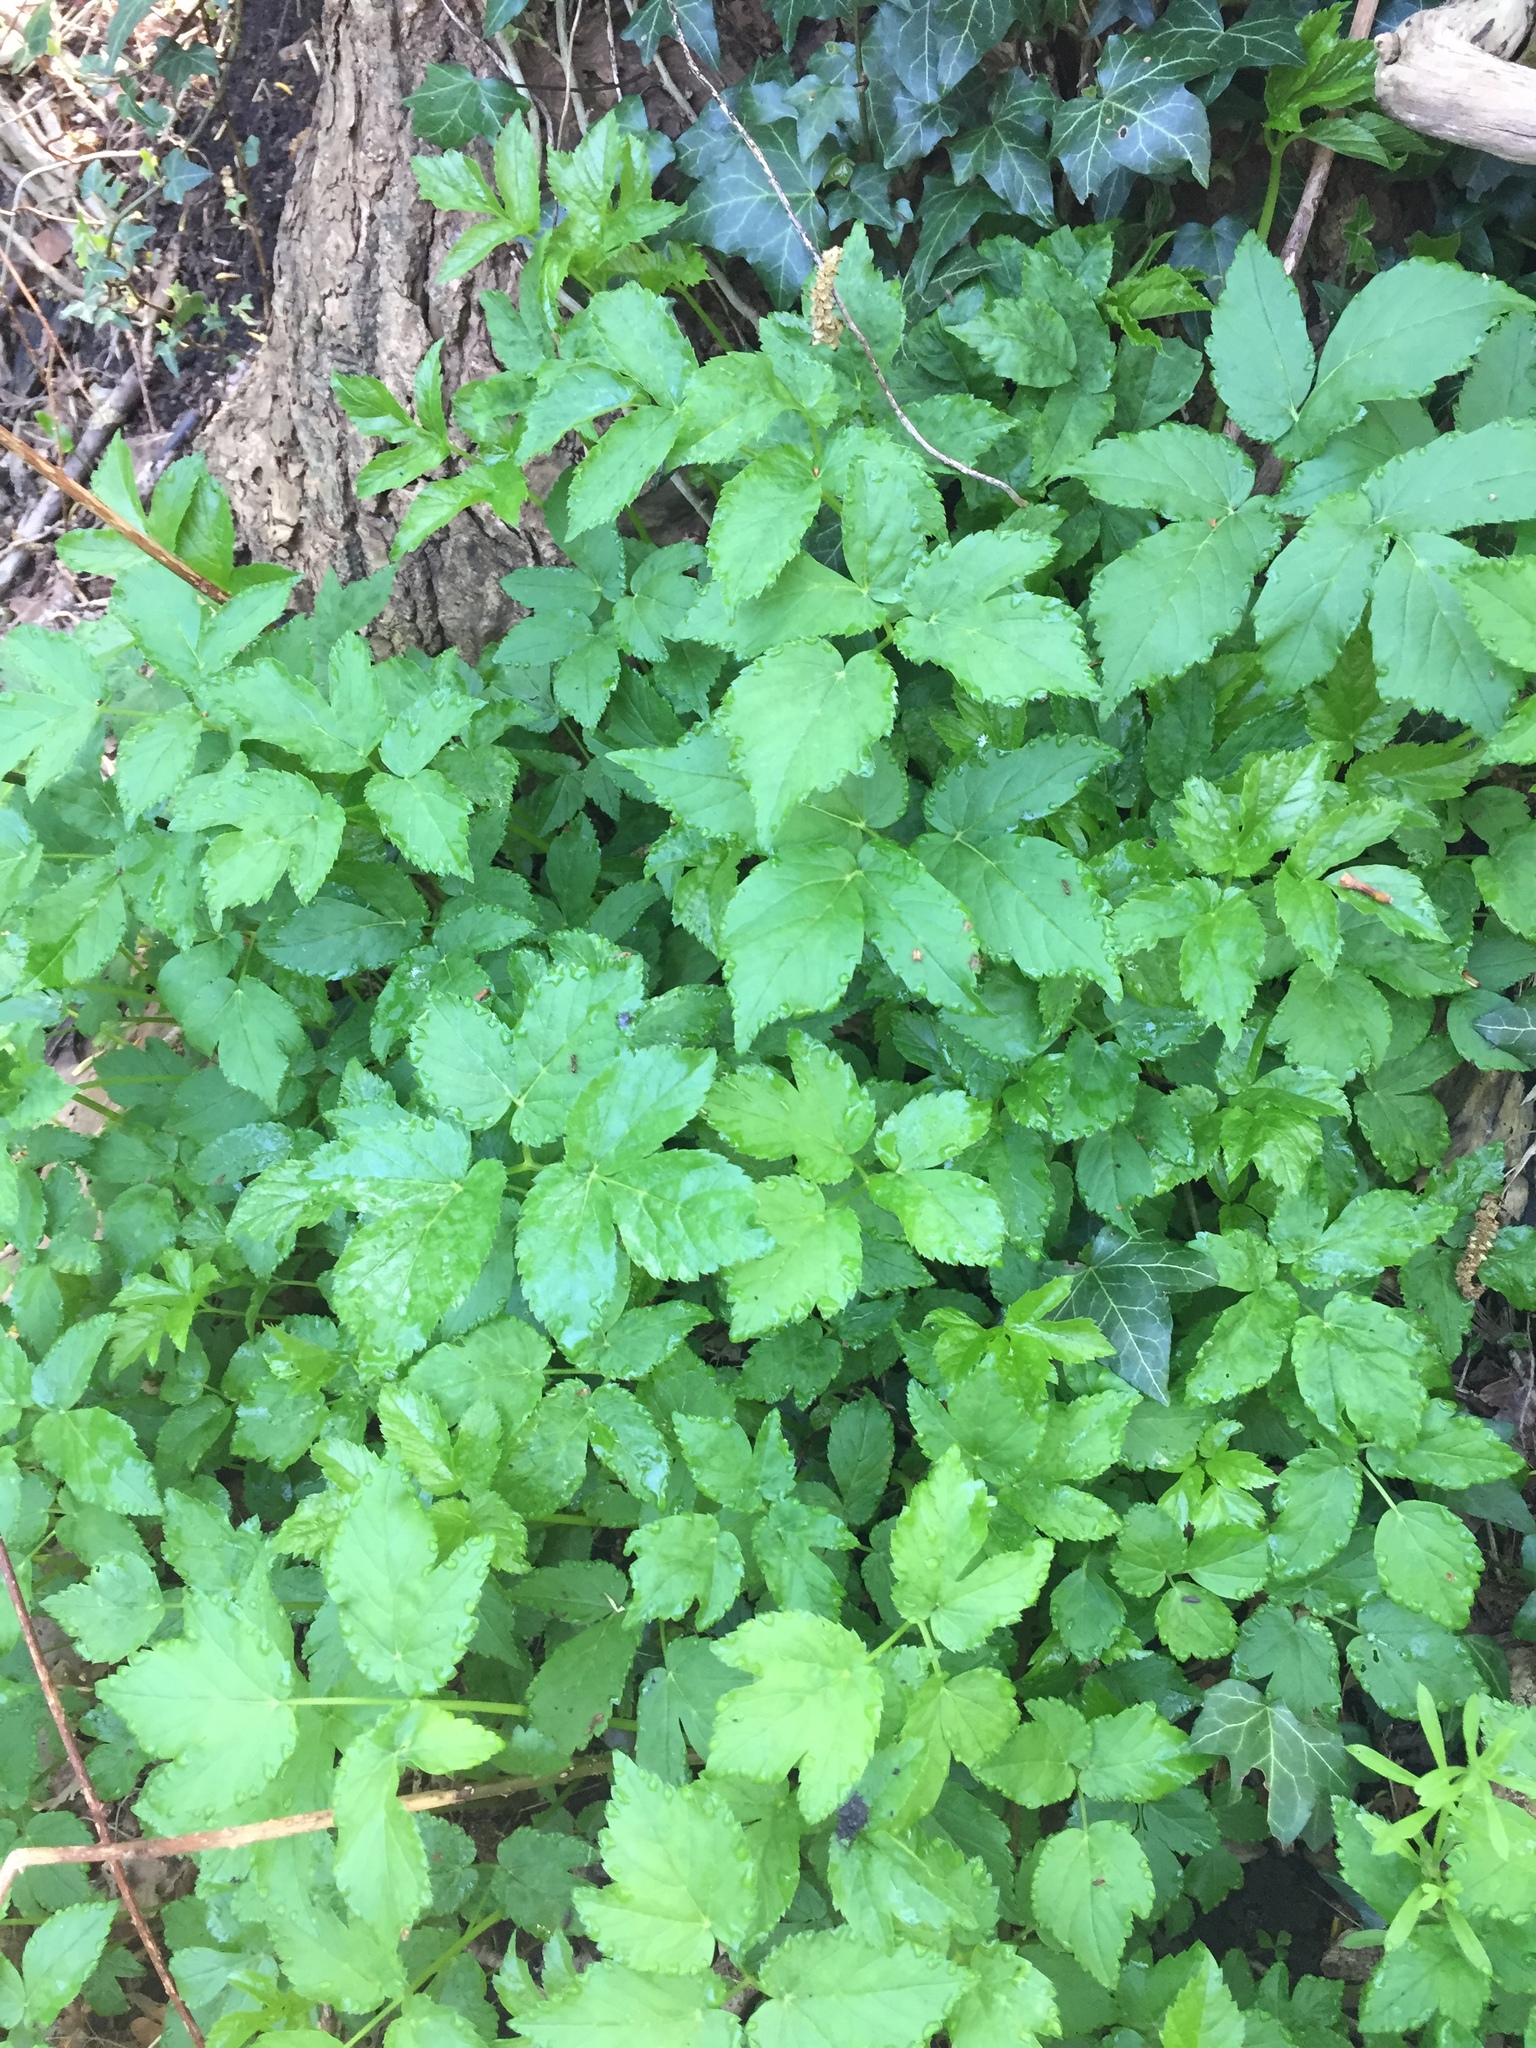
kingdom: Plantae
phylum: Tracheophyta
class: Magnoliopsida
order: Apiales
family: Apiaceae
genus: Aegopodium
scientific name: Aegopodium podagraria
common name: Ground-elder
